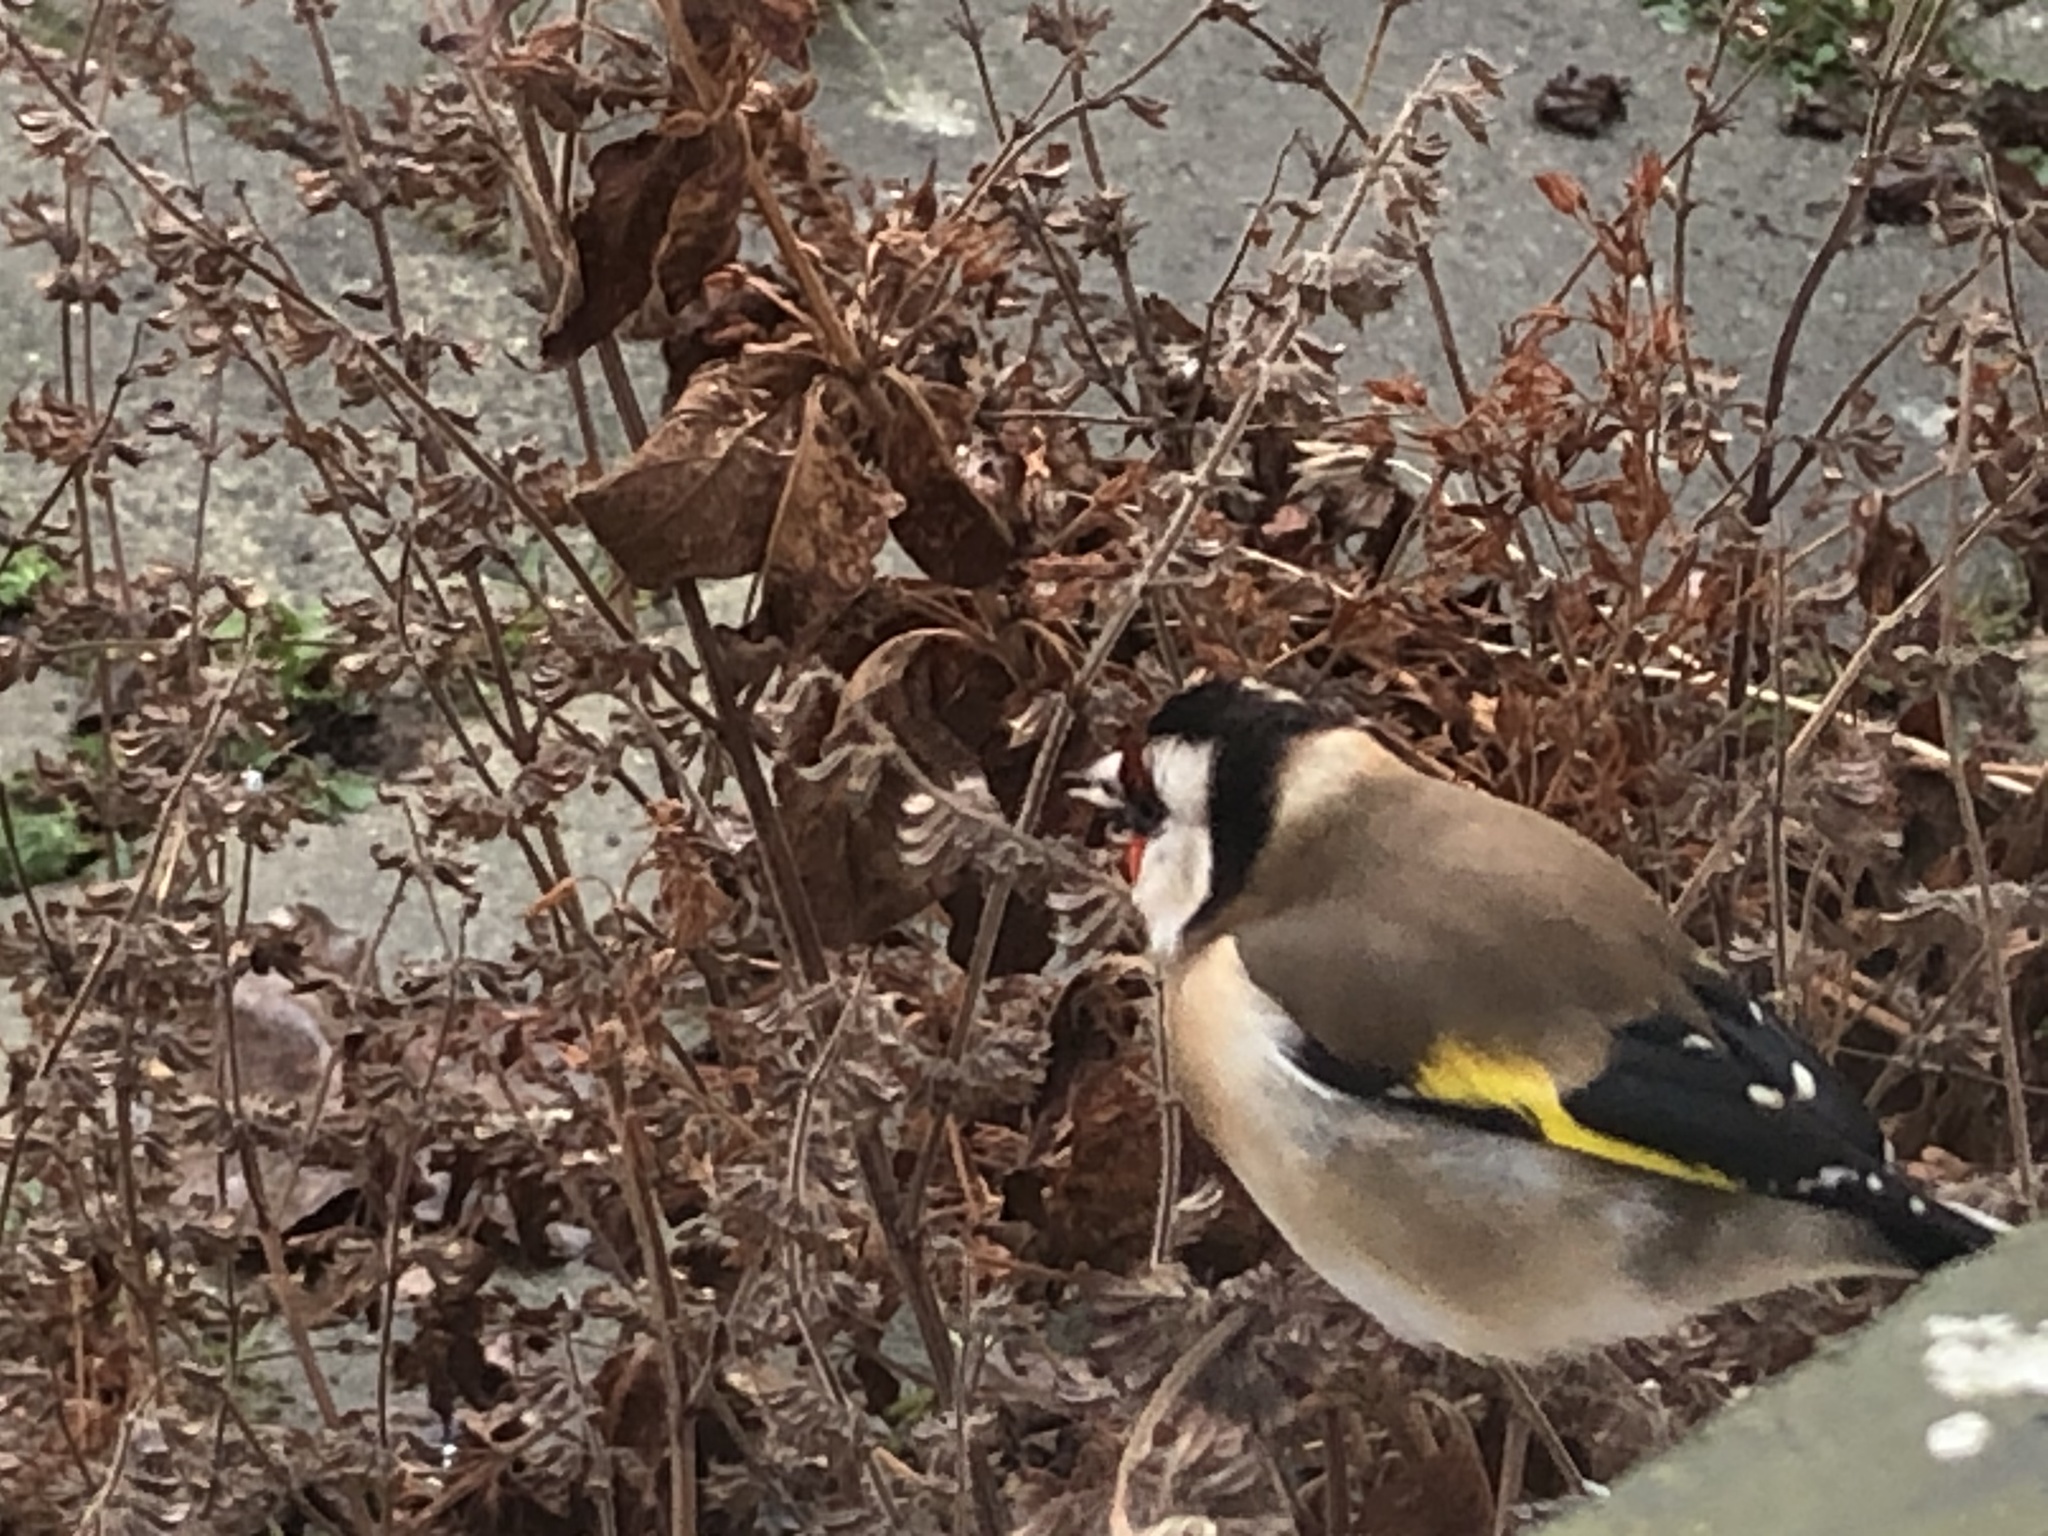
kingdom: Animalia
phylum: Chordata
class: Aves
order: Passeriformes
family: Fringillidae
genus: Carduelis
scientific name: Carduelis carduelis
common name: European goldfinch
